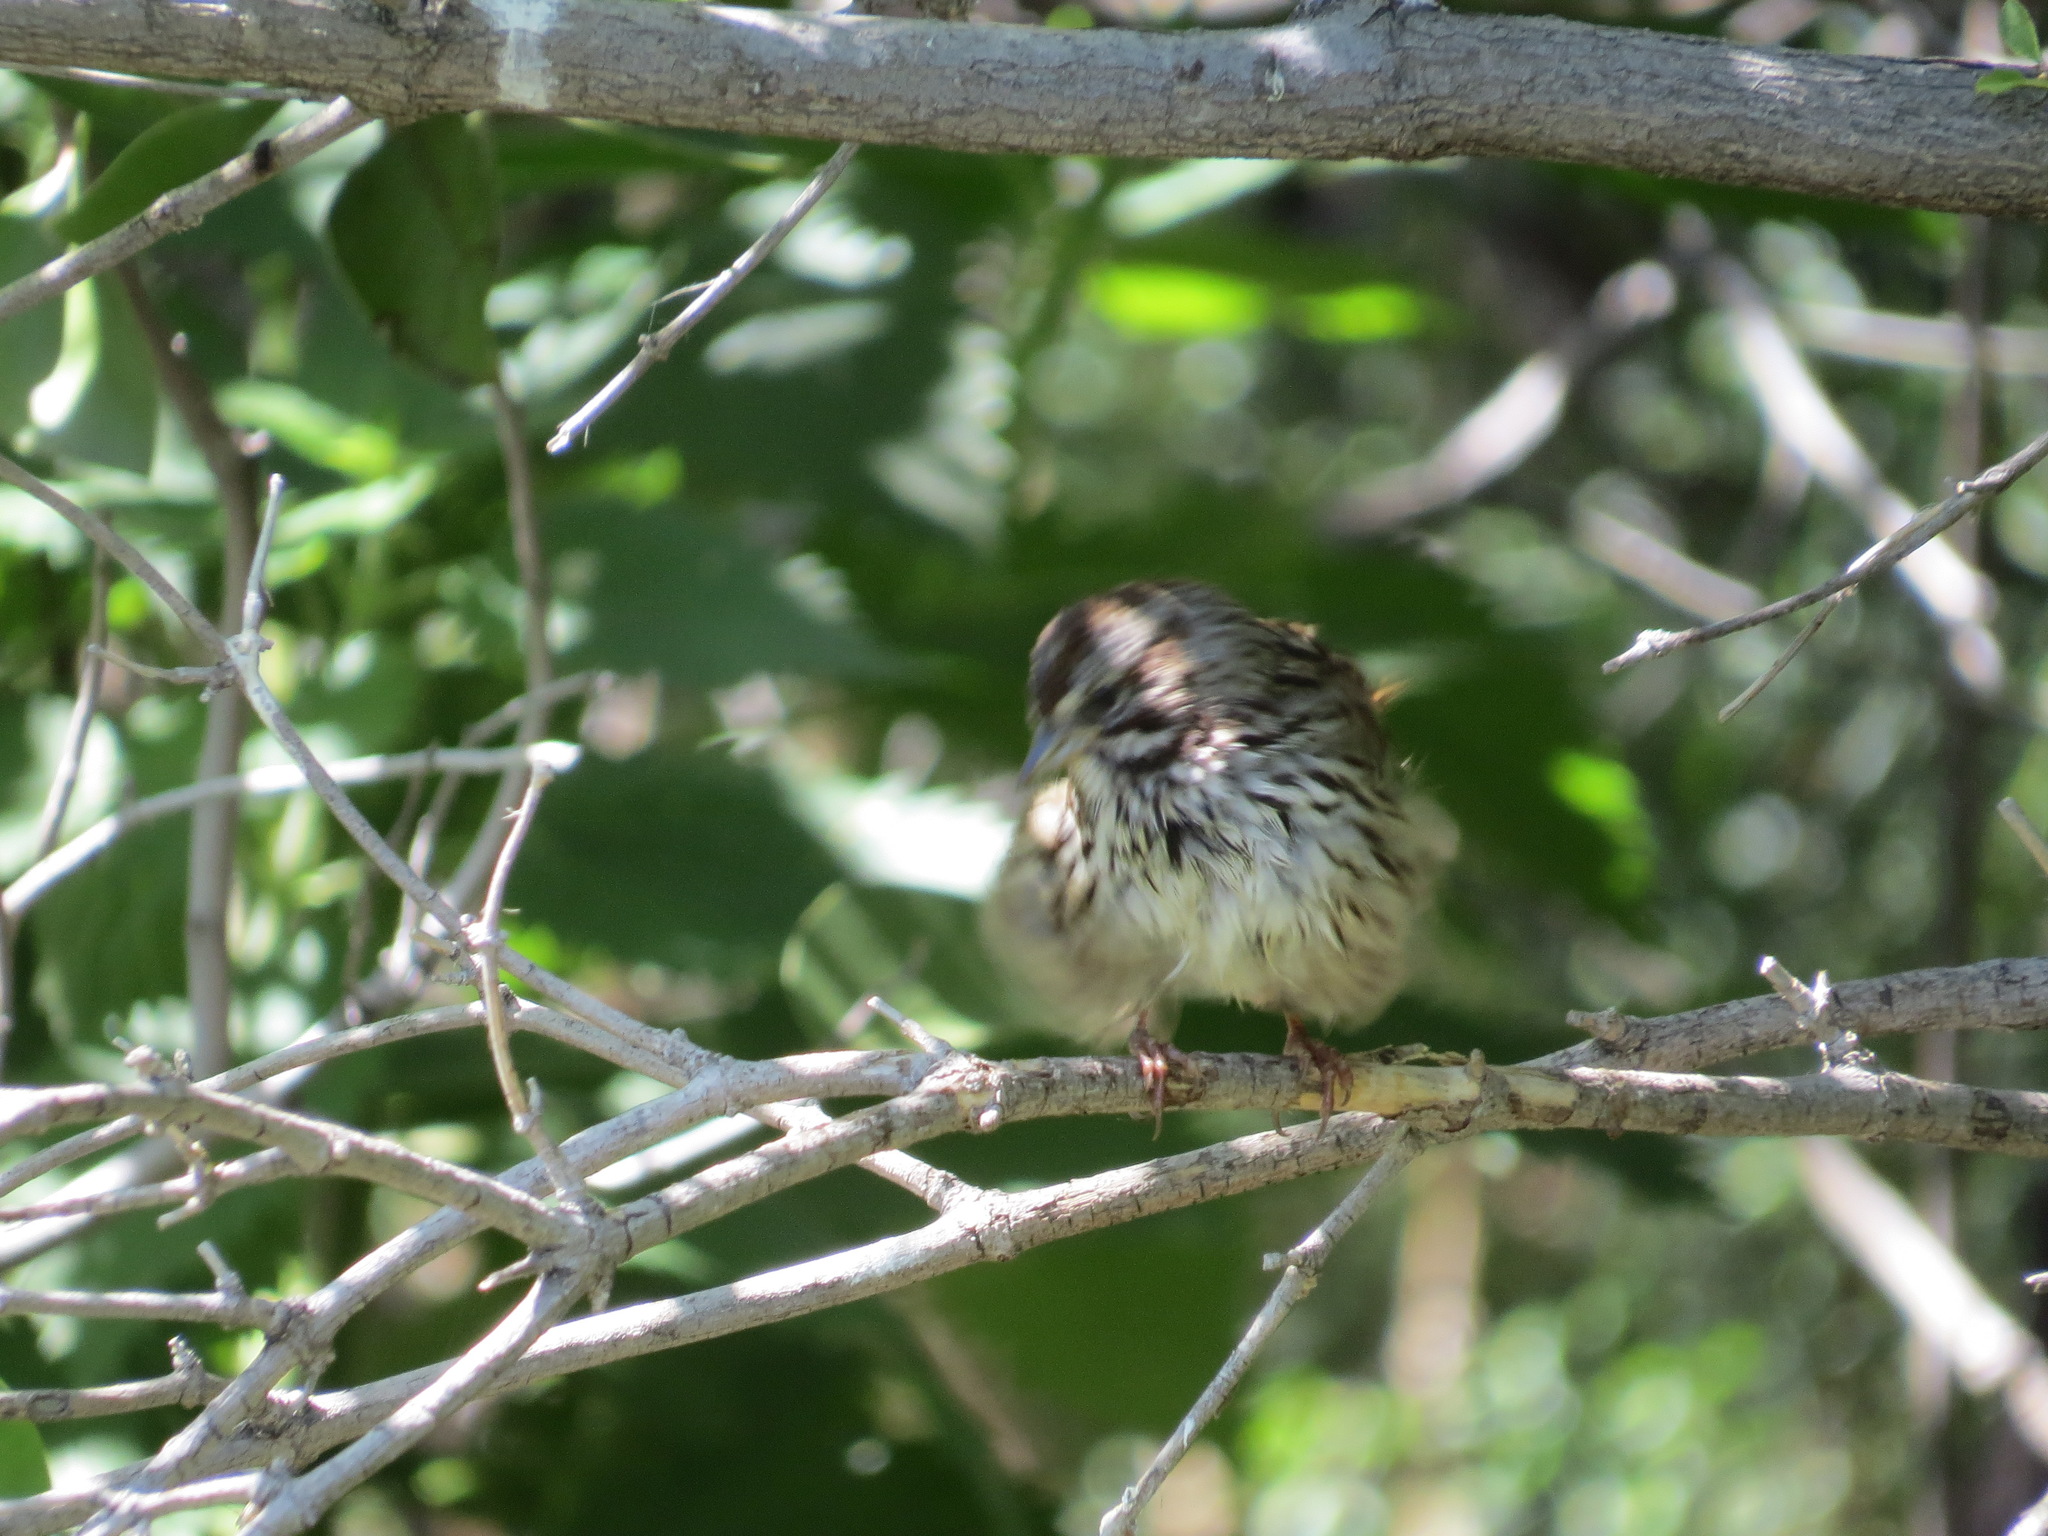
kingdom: Animalia
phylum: Chordata
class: Aves
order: Passeriformes
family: Passerellidae
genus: Melospiza
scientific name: Melospiza melodia
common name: Song sparrow
